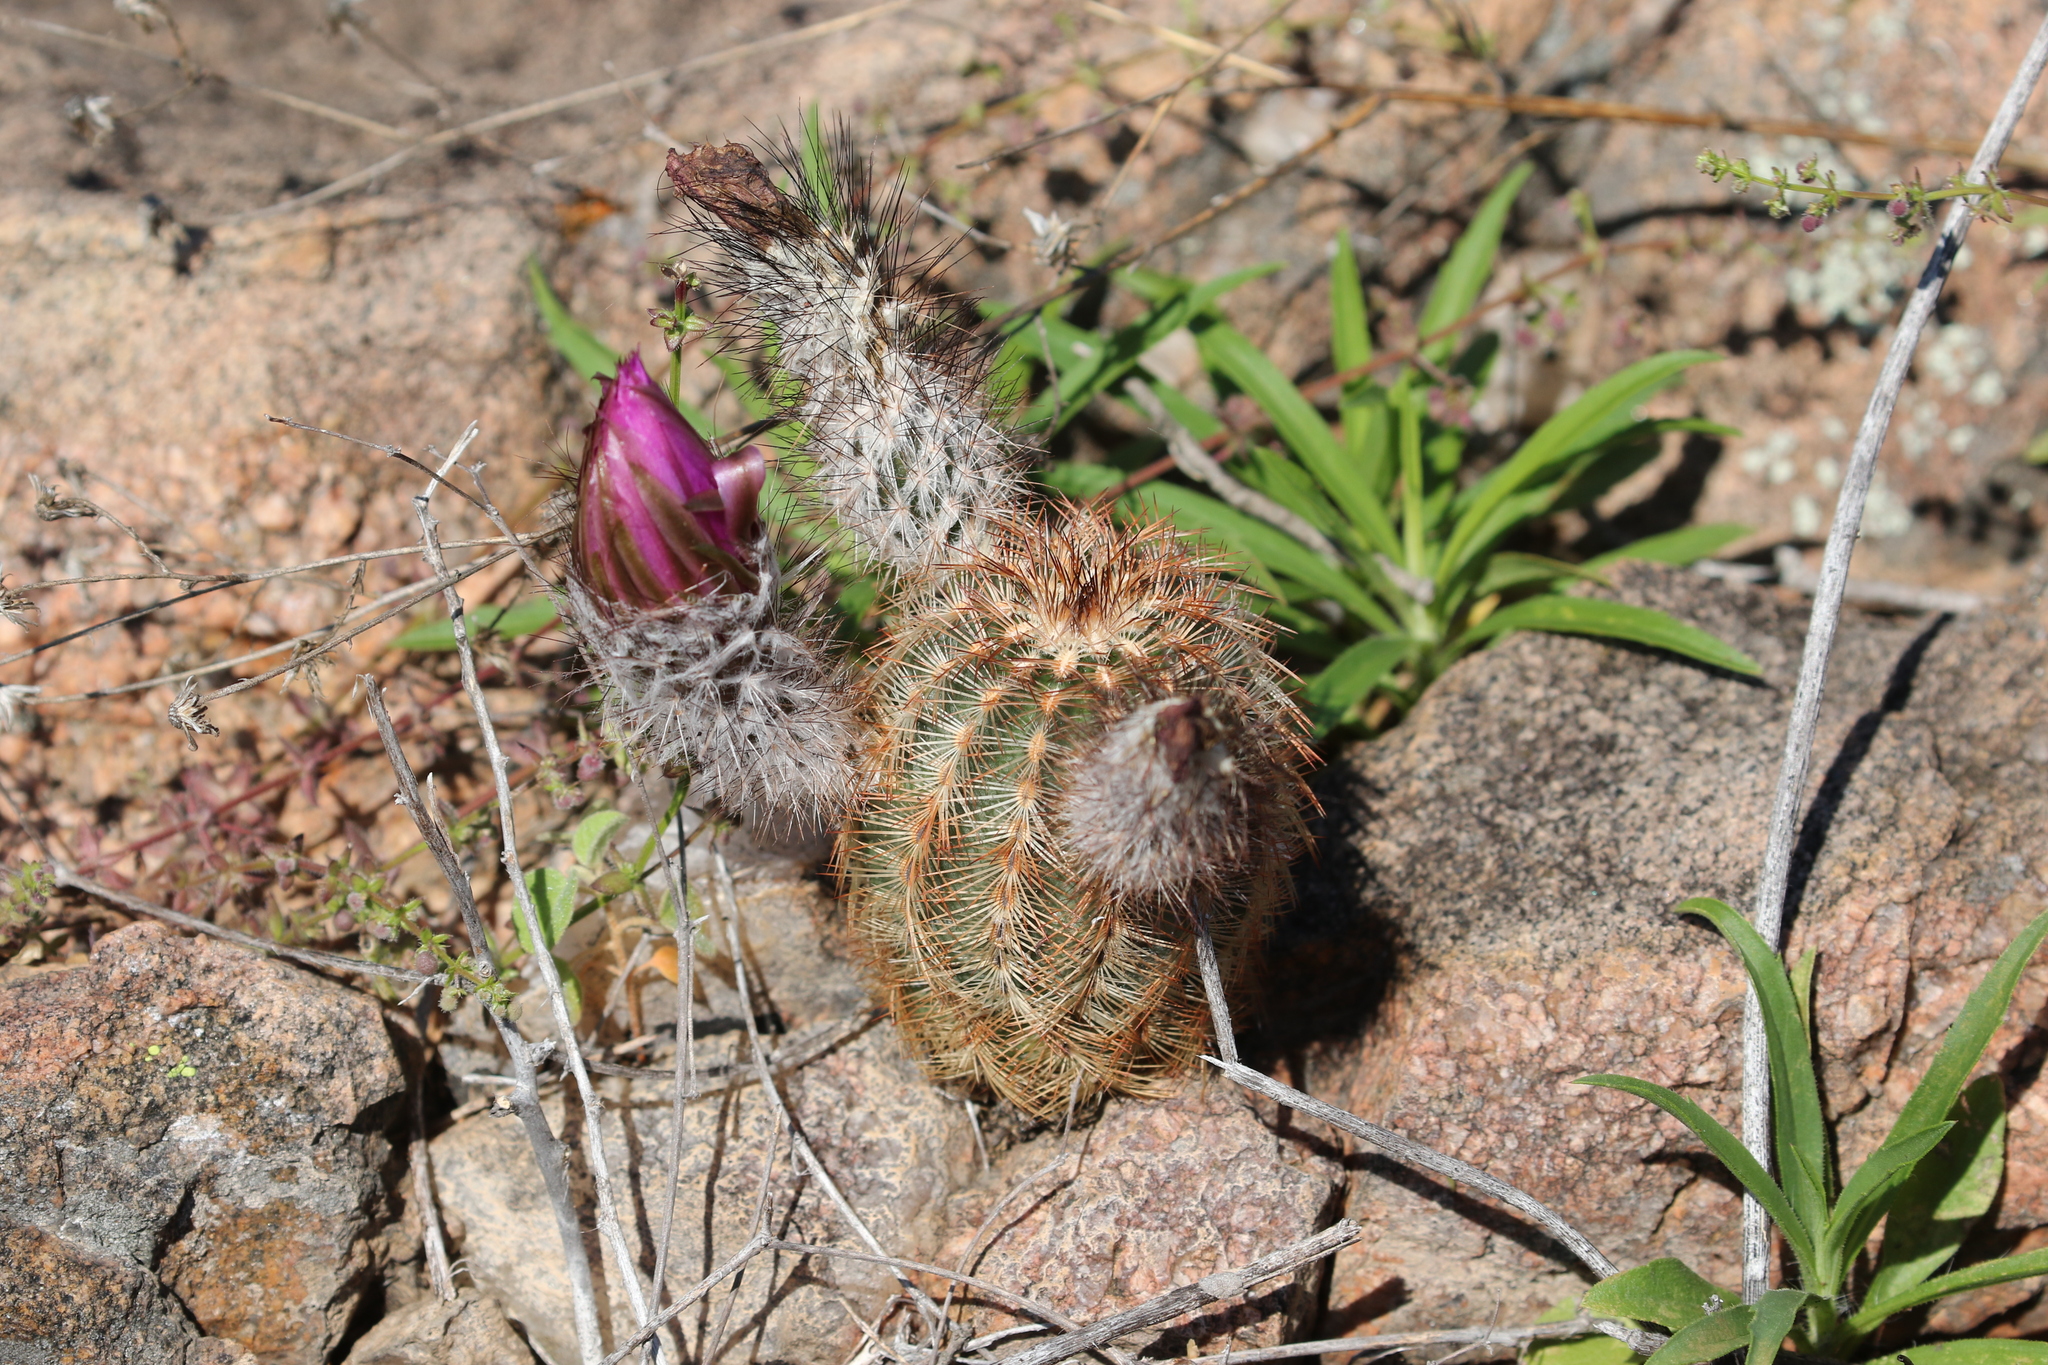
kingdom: Plantae
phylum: Tracheophyta
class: Magnoliopsida
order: Caryophyllales
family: Cactaceae
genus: Echinocereus
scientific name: Echinocereus reichenbachii
